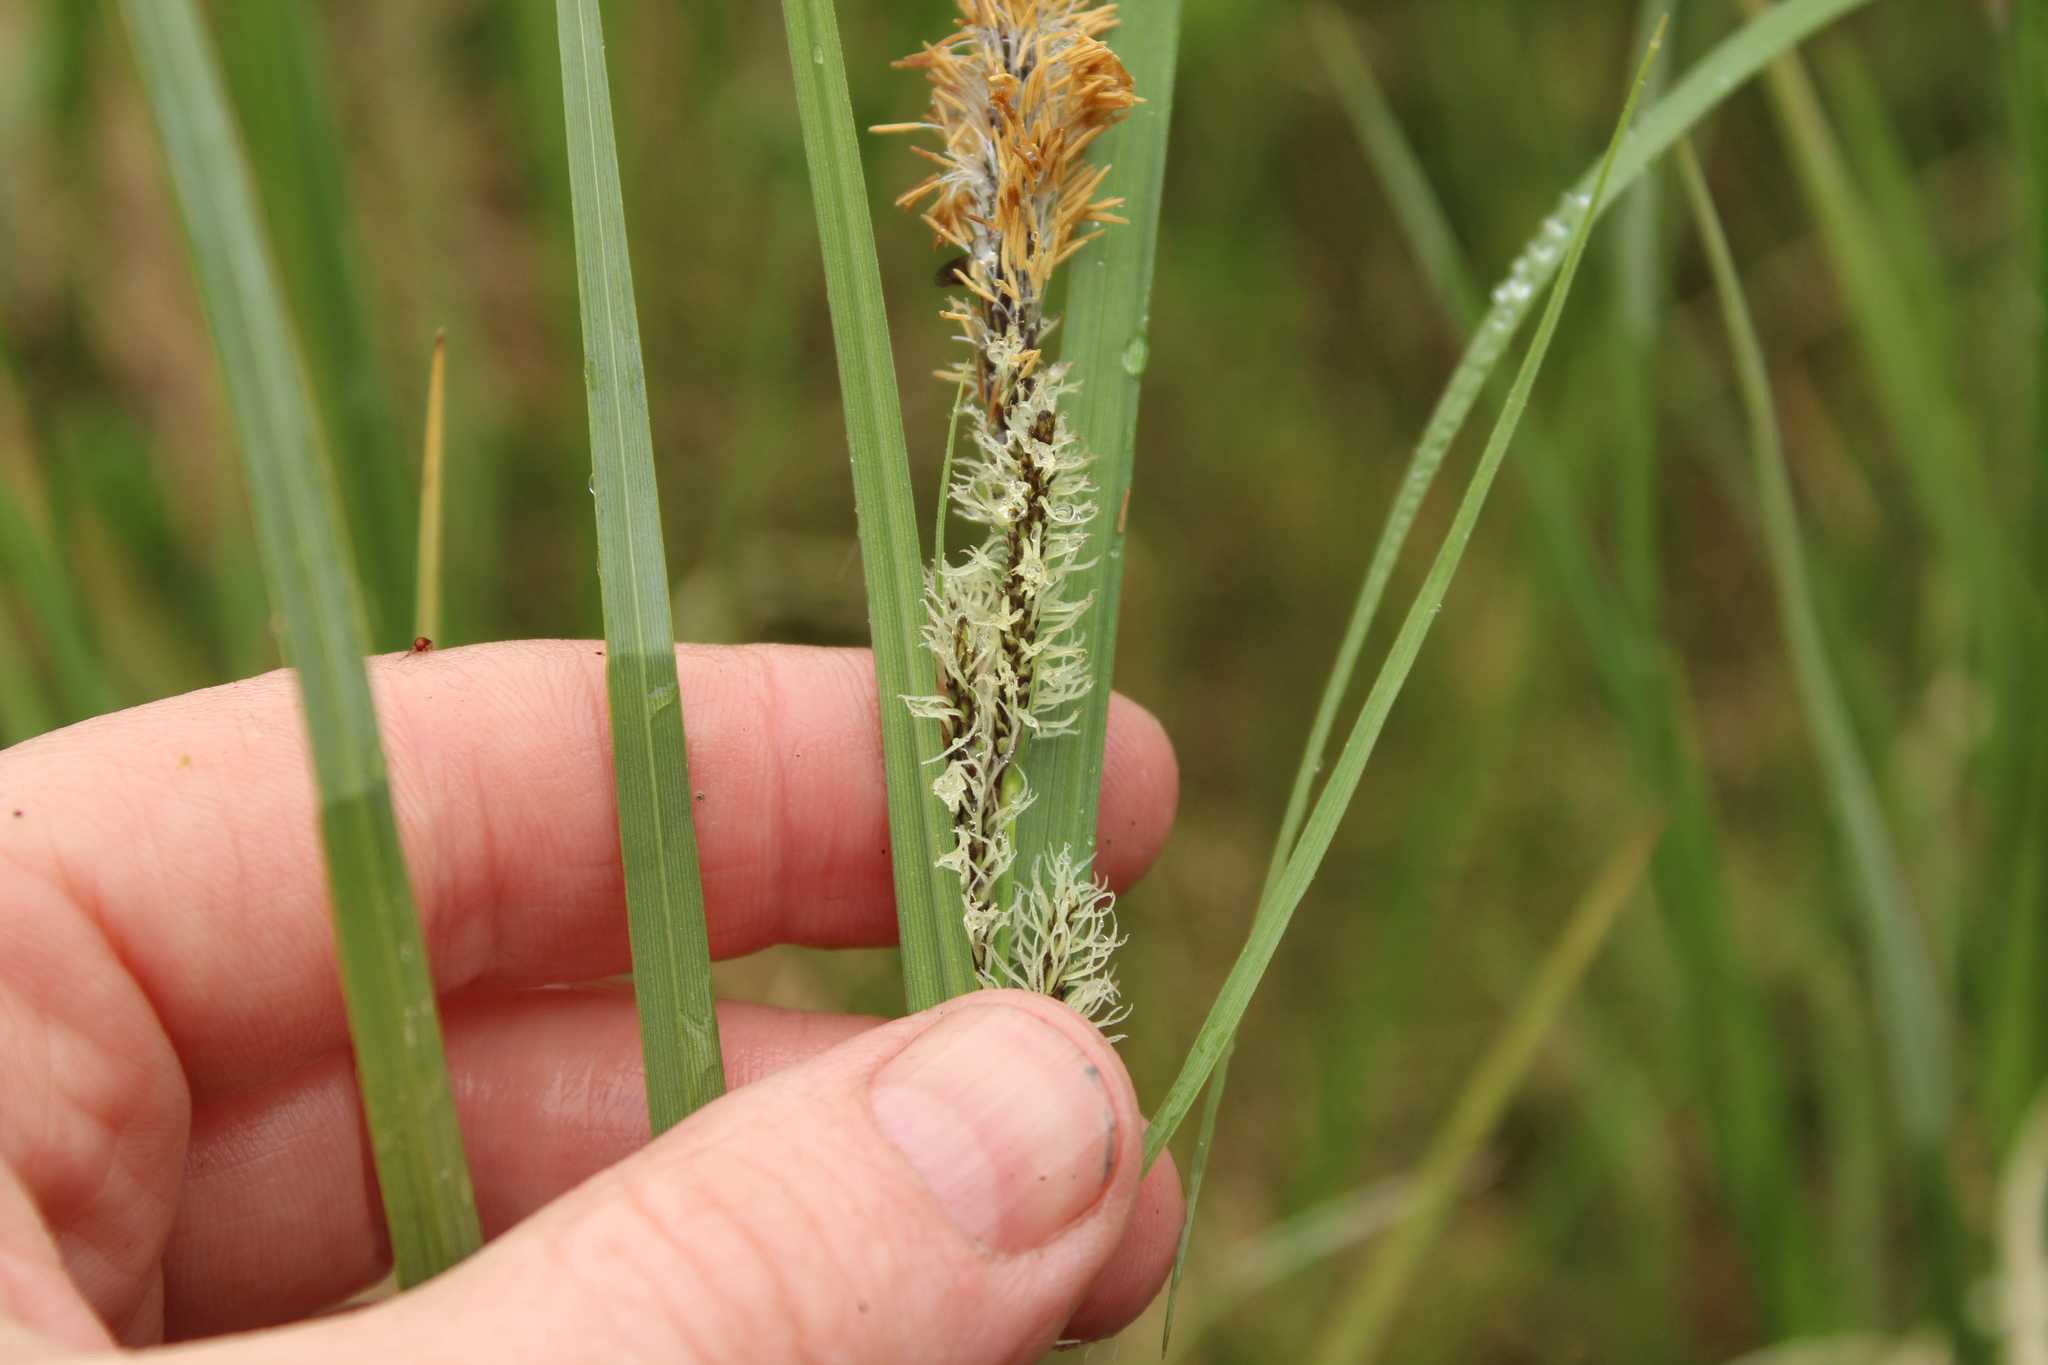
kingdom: Plantae
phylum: Tracheophyta
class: Liliopsida
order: Poales
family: Cyperaceae
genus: Carex
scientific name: Carex aquatilis
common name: Water sedge
